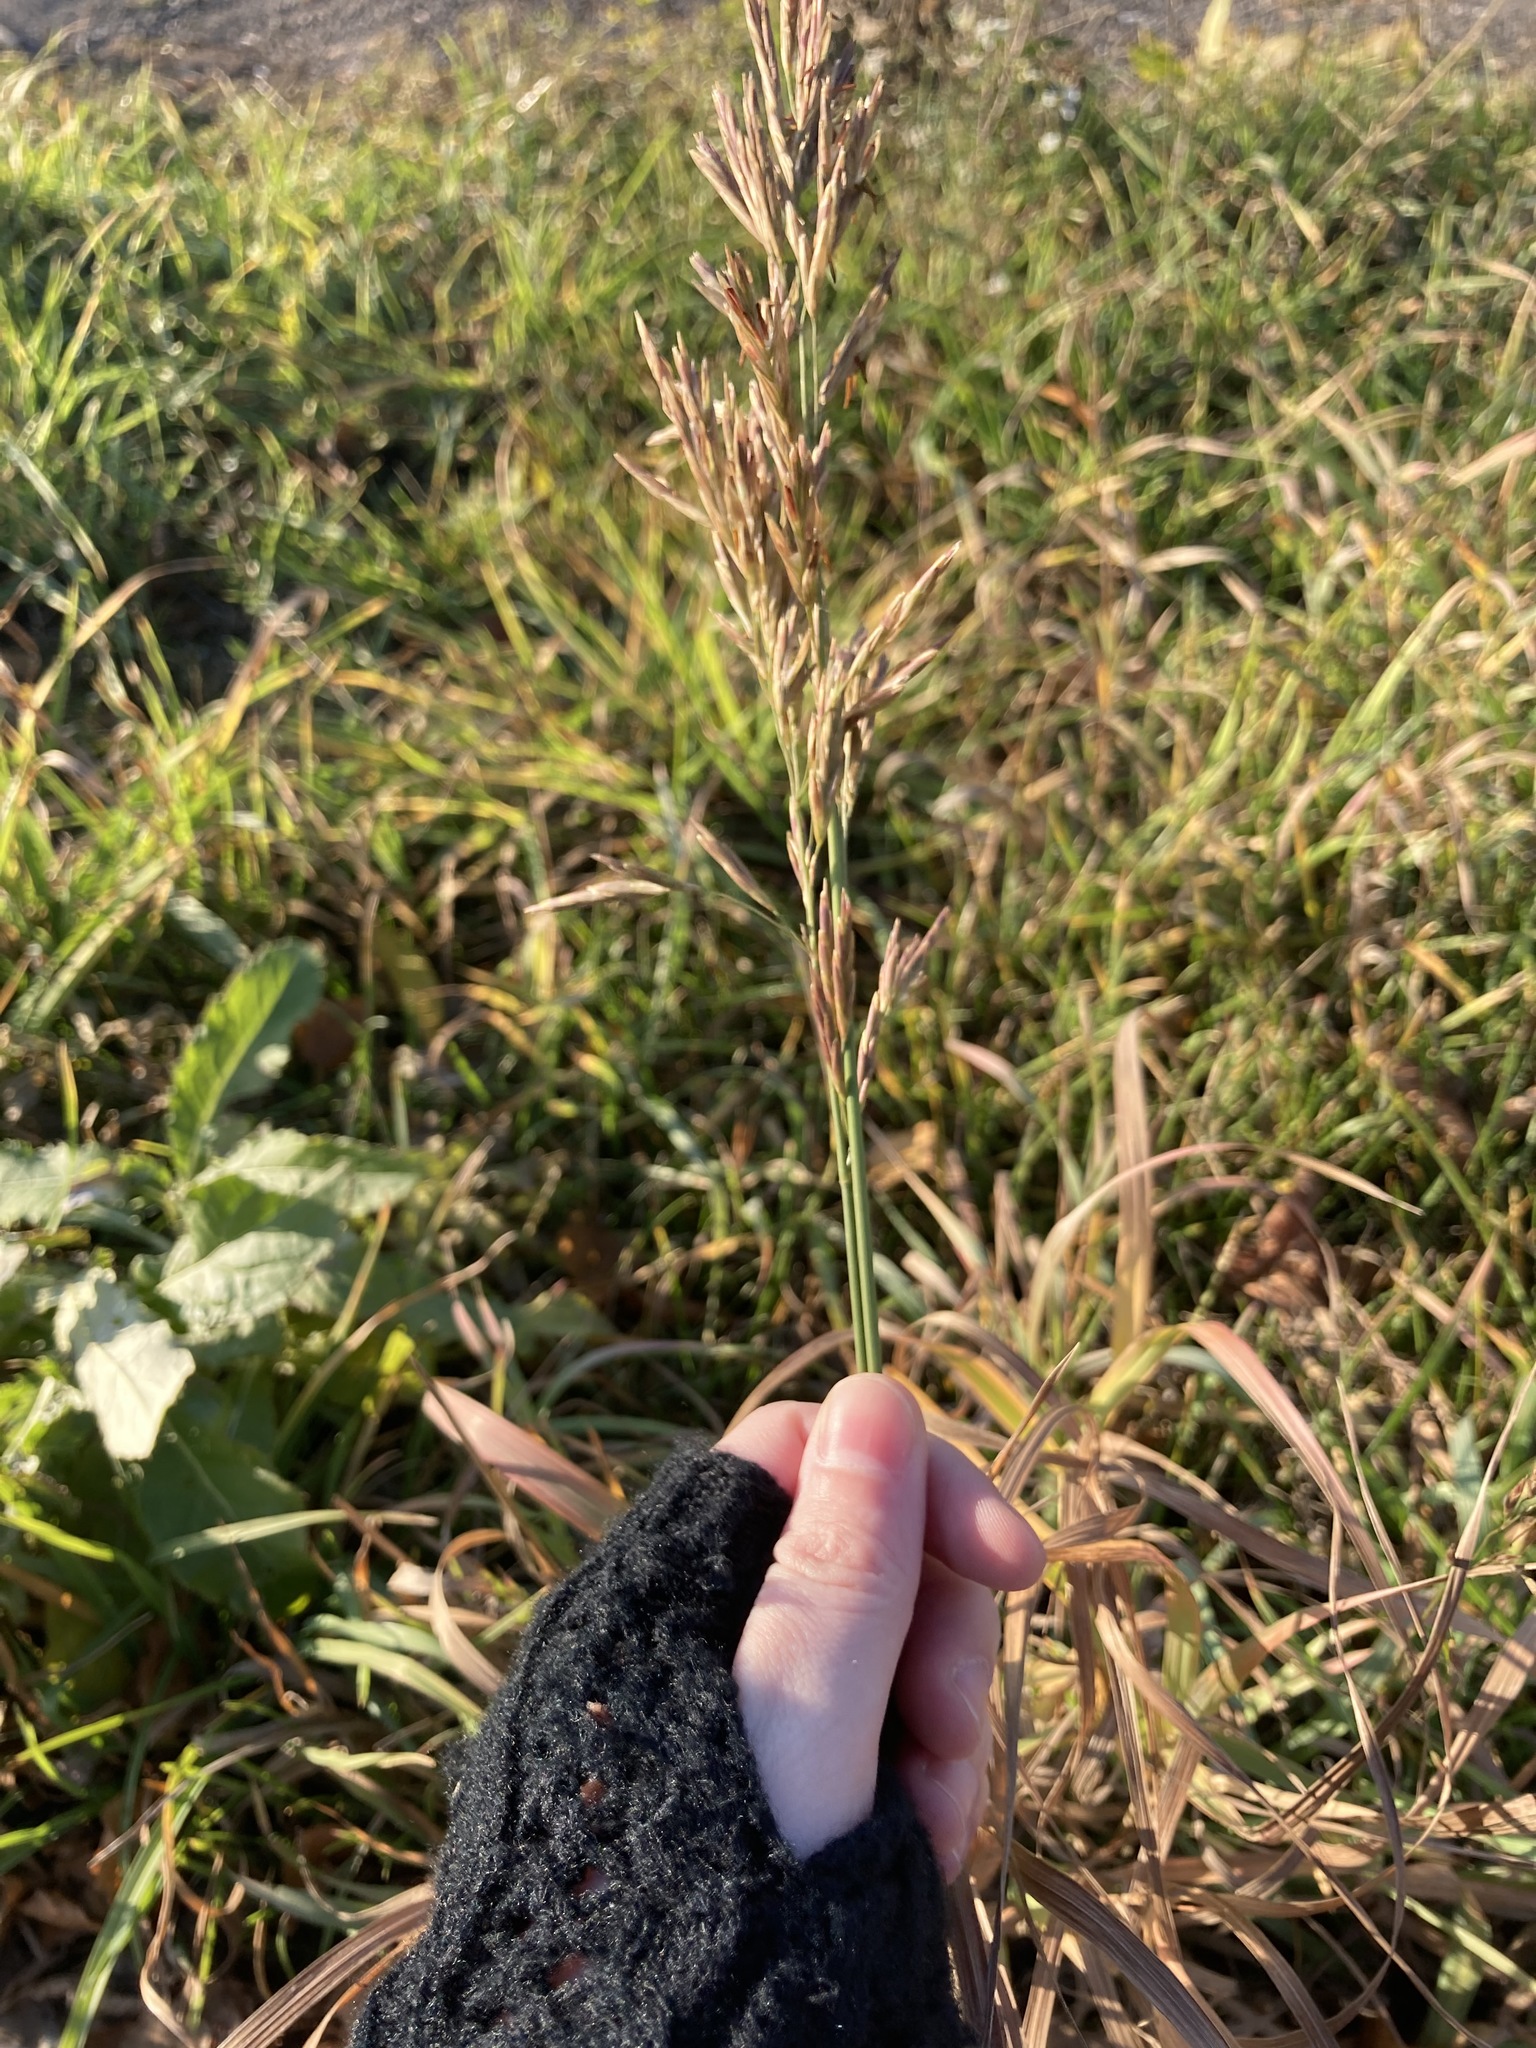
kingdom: Plantae
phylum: Tracheophyta
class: Liliopsida
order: Poales
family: Poaceae
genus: Bromus
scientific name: Bromus inermis
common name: Smooth brome
